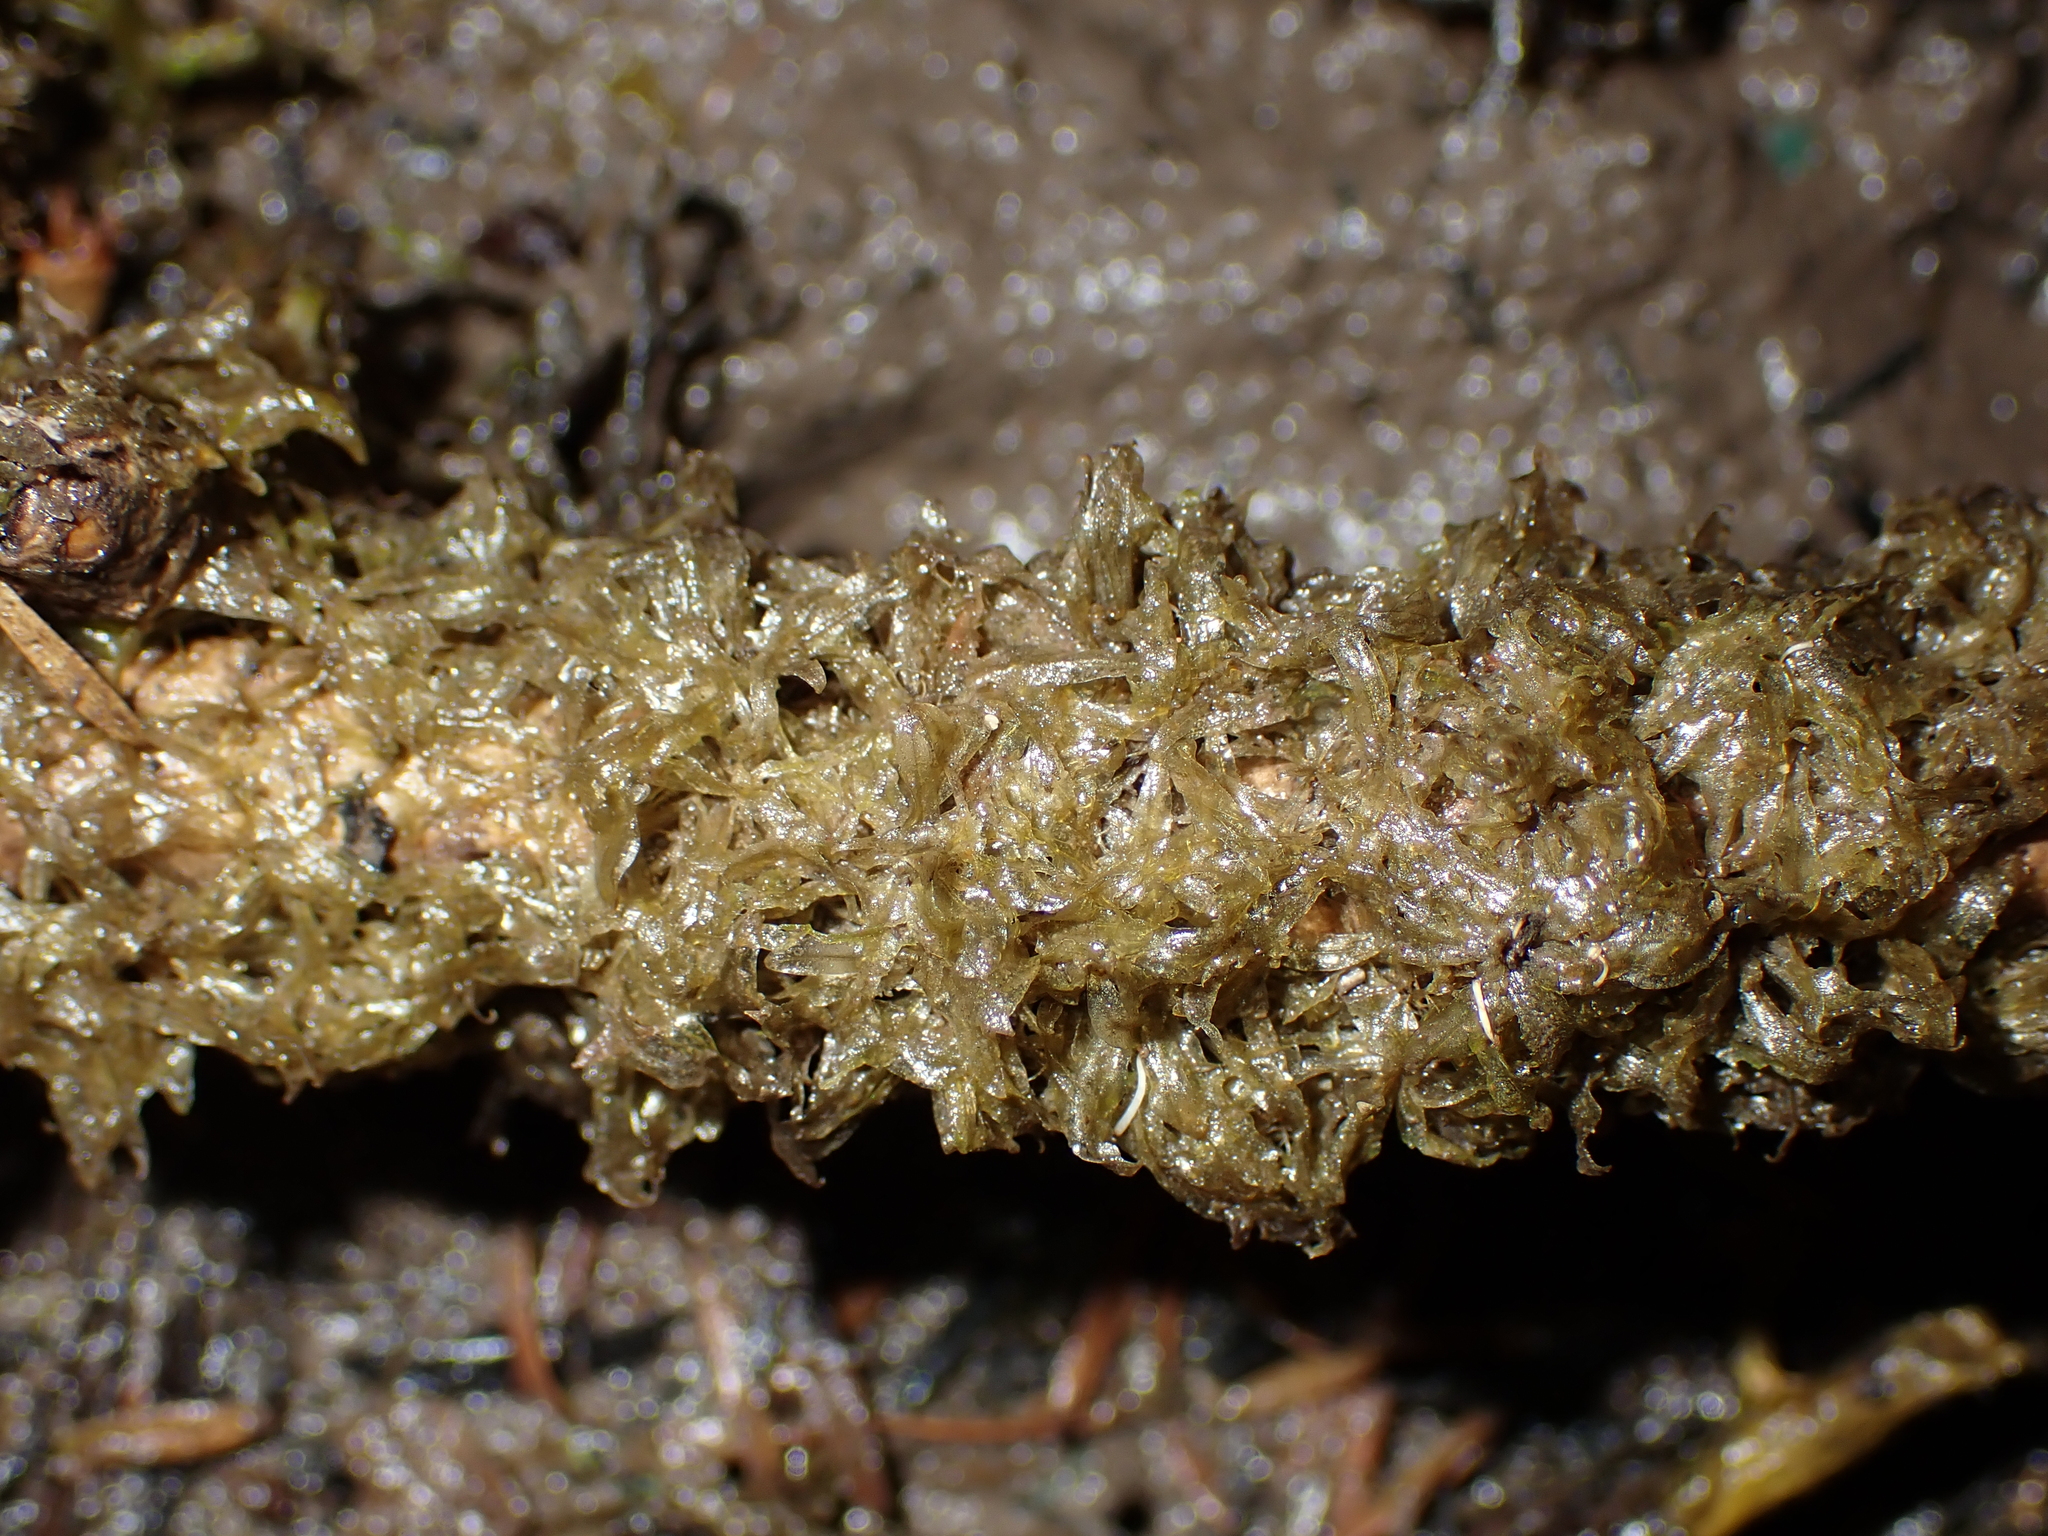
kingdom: Plantae
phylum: Rhodophyta
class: Florideophyceae
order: Ceramiales
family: Delesseriaceae
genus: Caloglossa
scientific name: Caloglossa vieillardii
